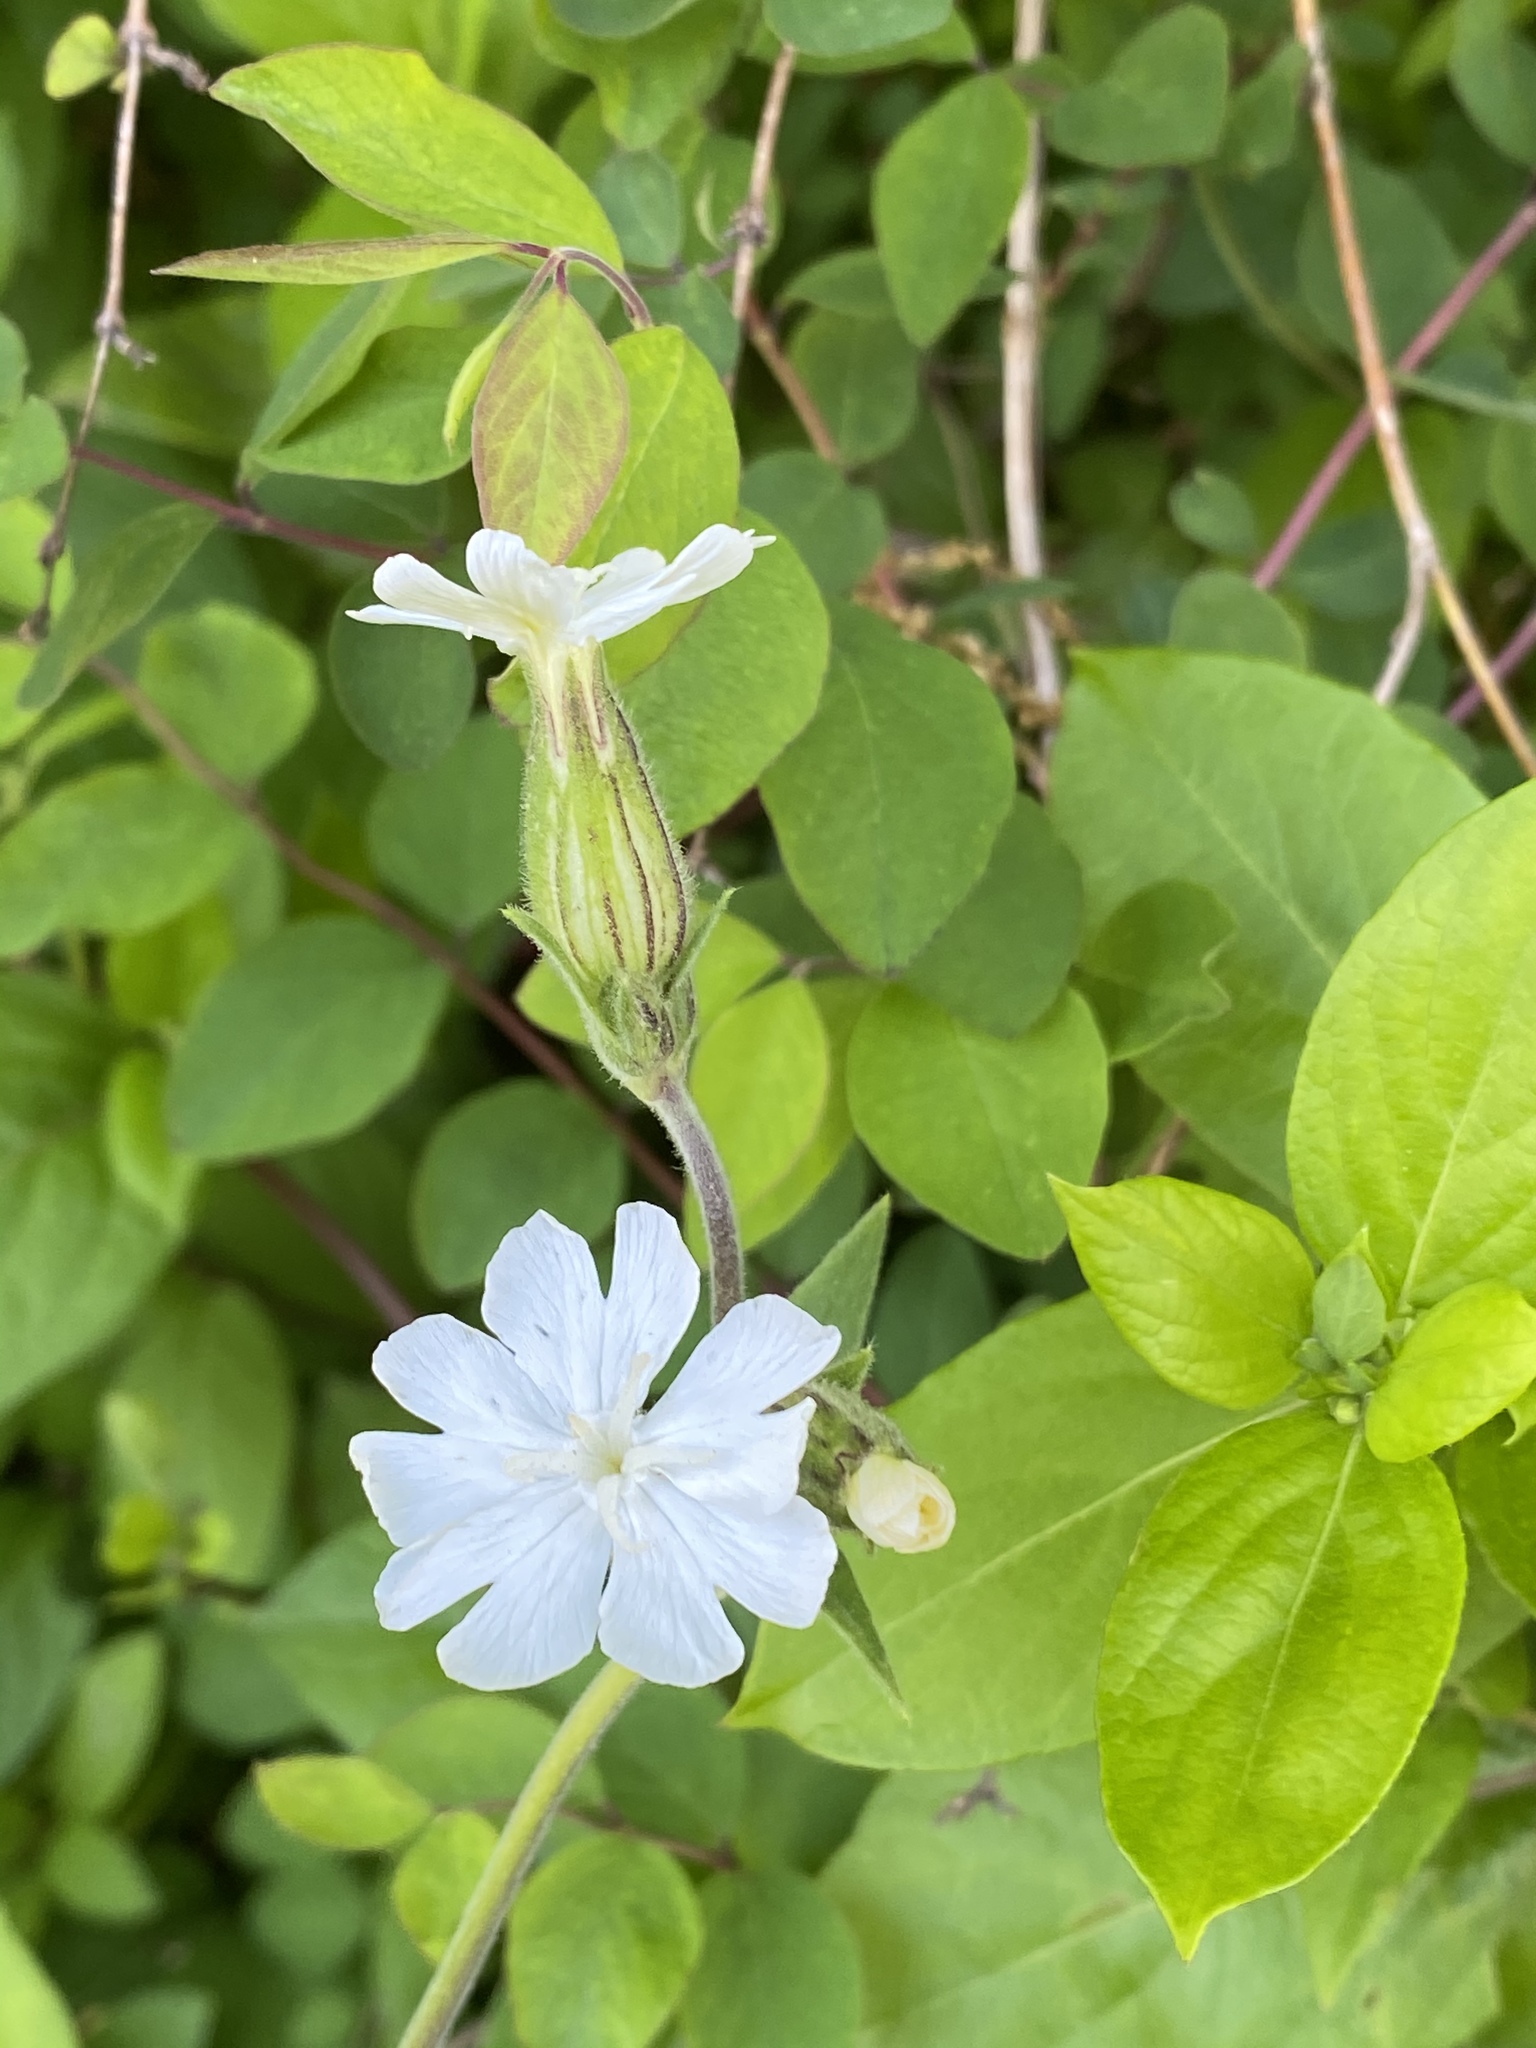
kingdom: Plantae
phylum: Tracheophyta
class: Magnoliopsida
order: Caryophyllales
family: Caryophyllaceae
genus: Silene
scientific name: Silene latifolia
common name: White campion
